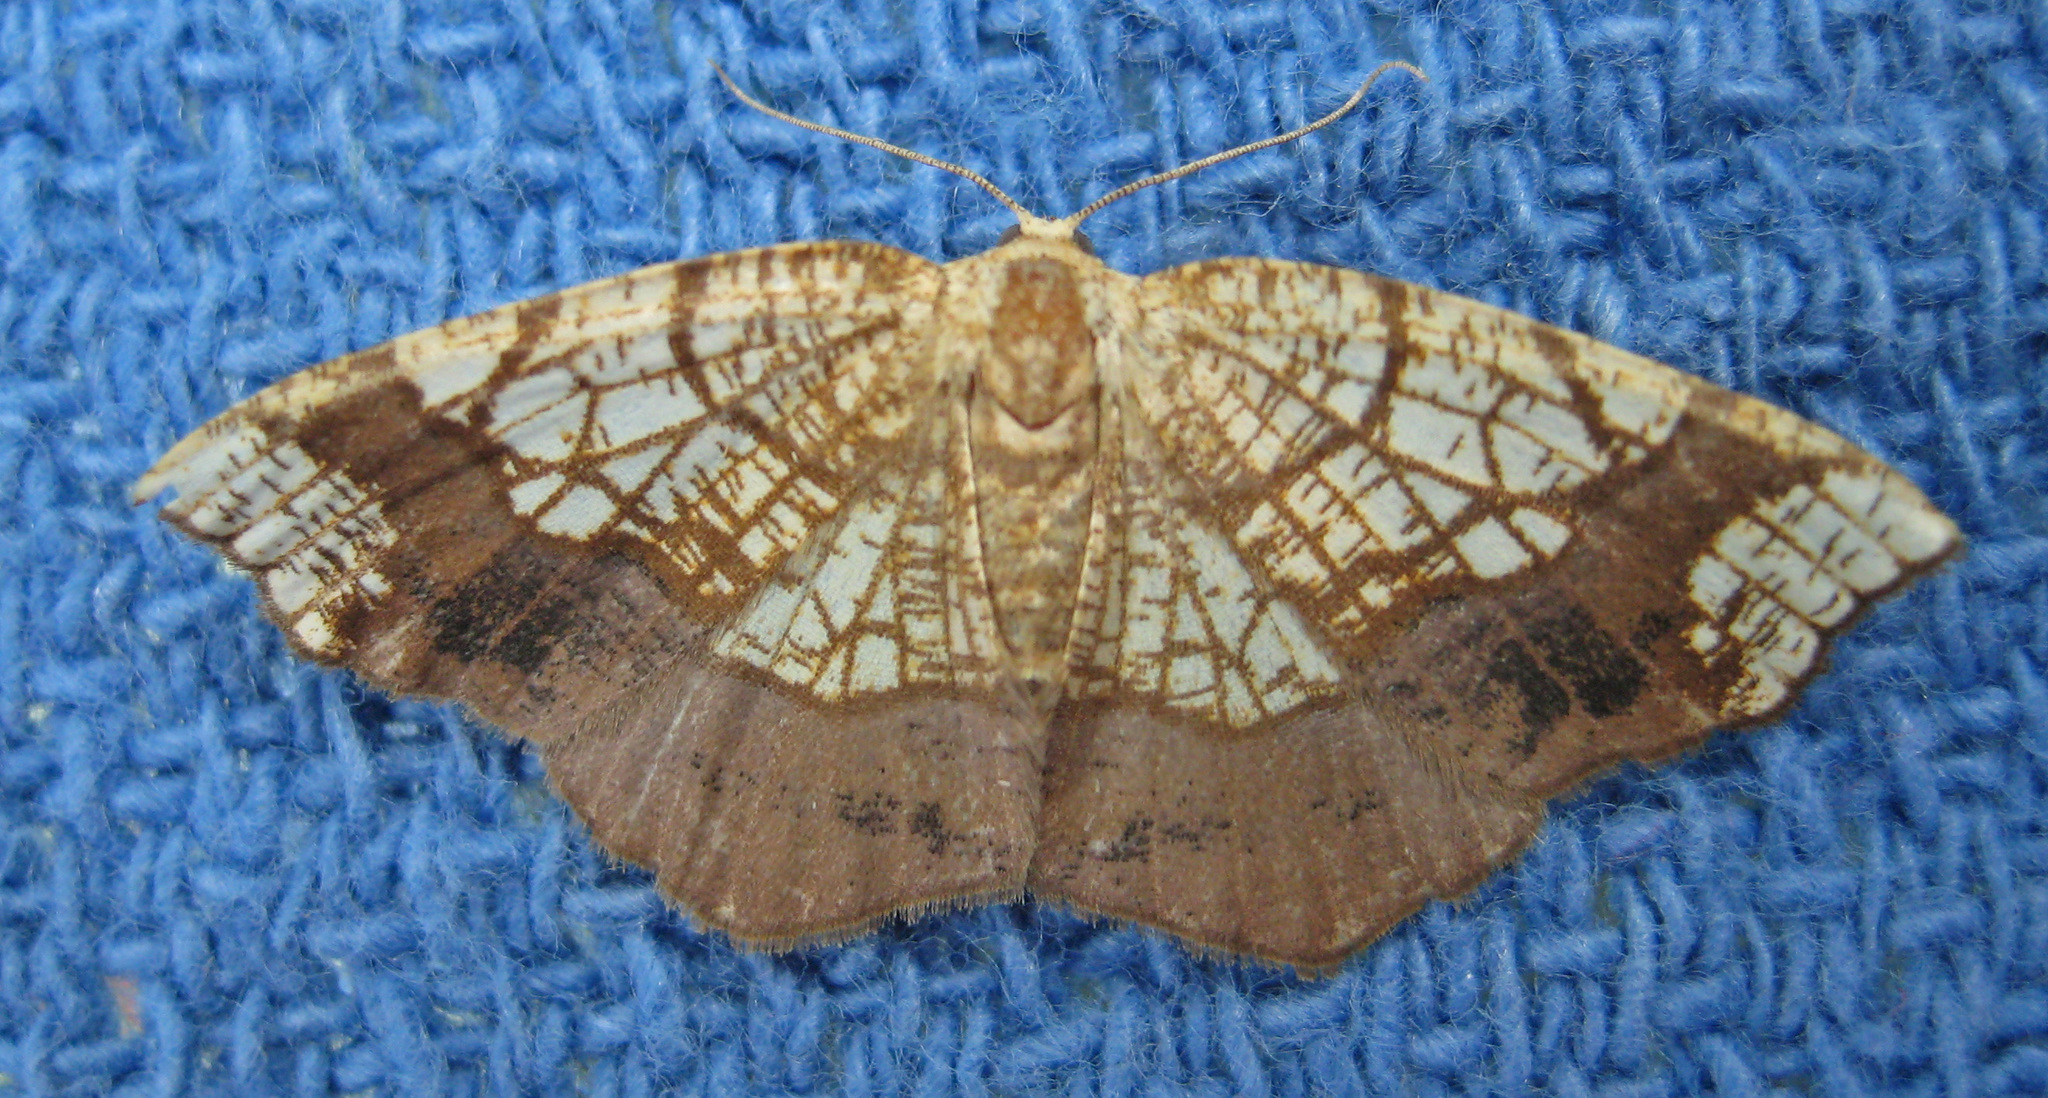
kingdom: Animalia
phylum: Arthropoda
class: Insecta
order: Lepidoptera
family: Geometridae
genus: Nematocampa
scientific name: Nematocampa resistaria
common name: Horned spanworm moth
